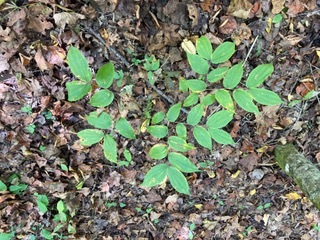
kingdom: Plantae
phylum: Tracheophyta
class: Liliopsida
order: Liliales
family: Liliaceae
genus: Prosartes
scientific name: Prosartes lanuginosa
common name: Hairy mandarin
